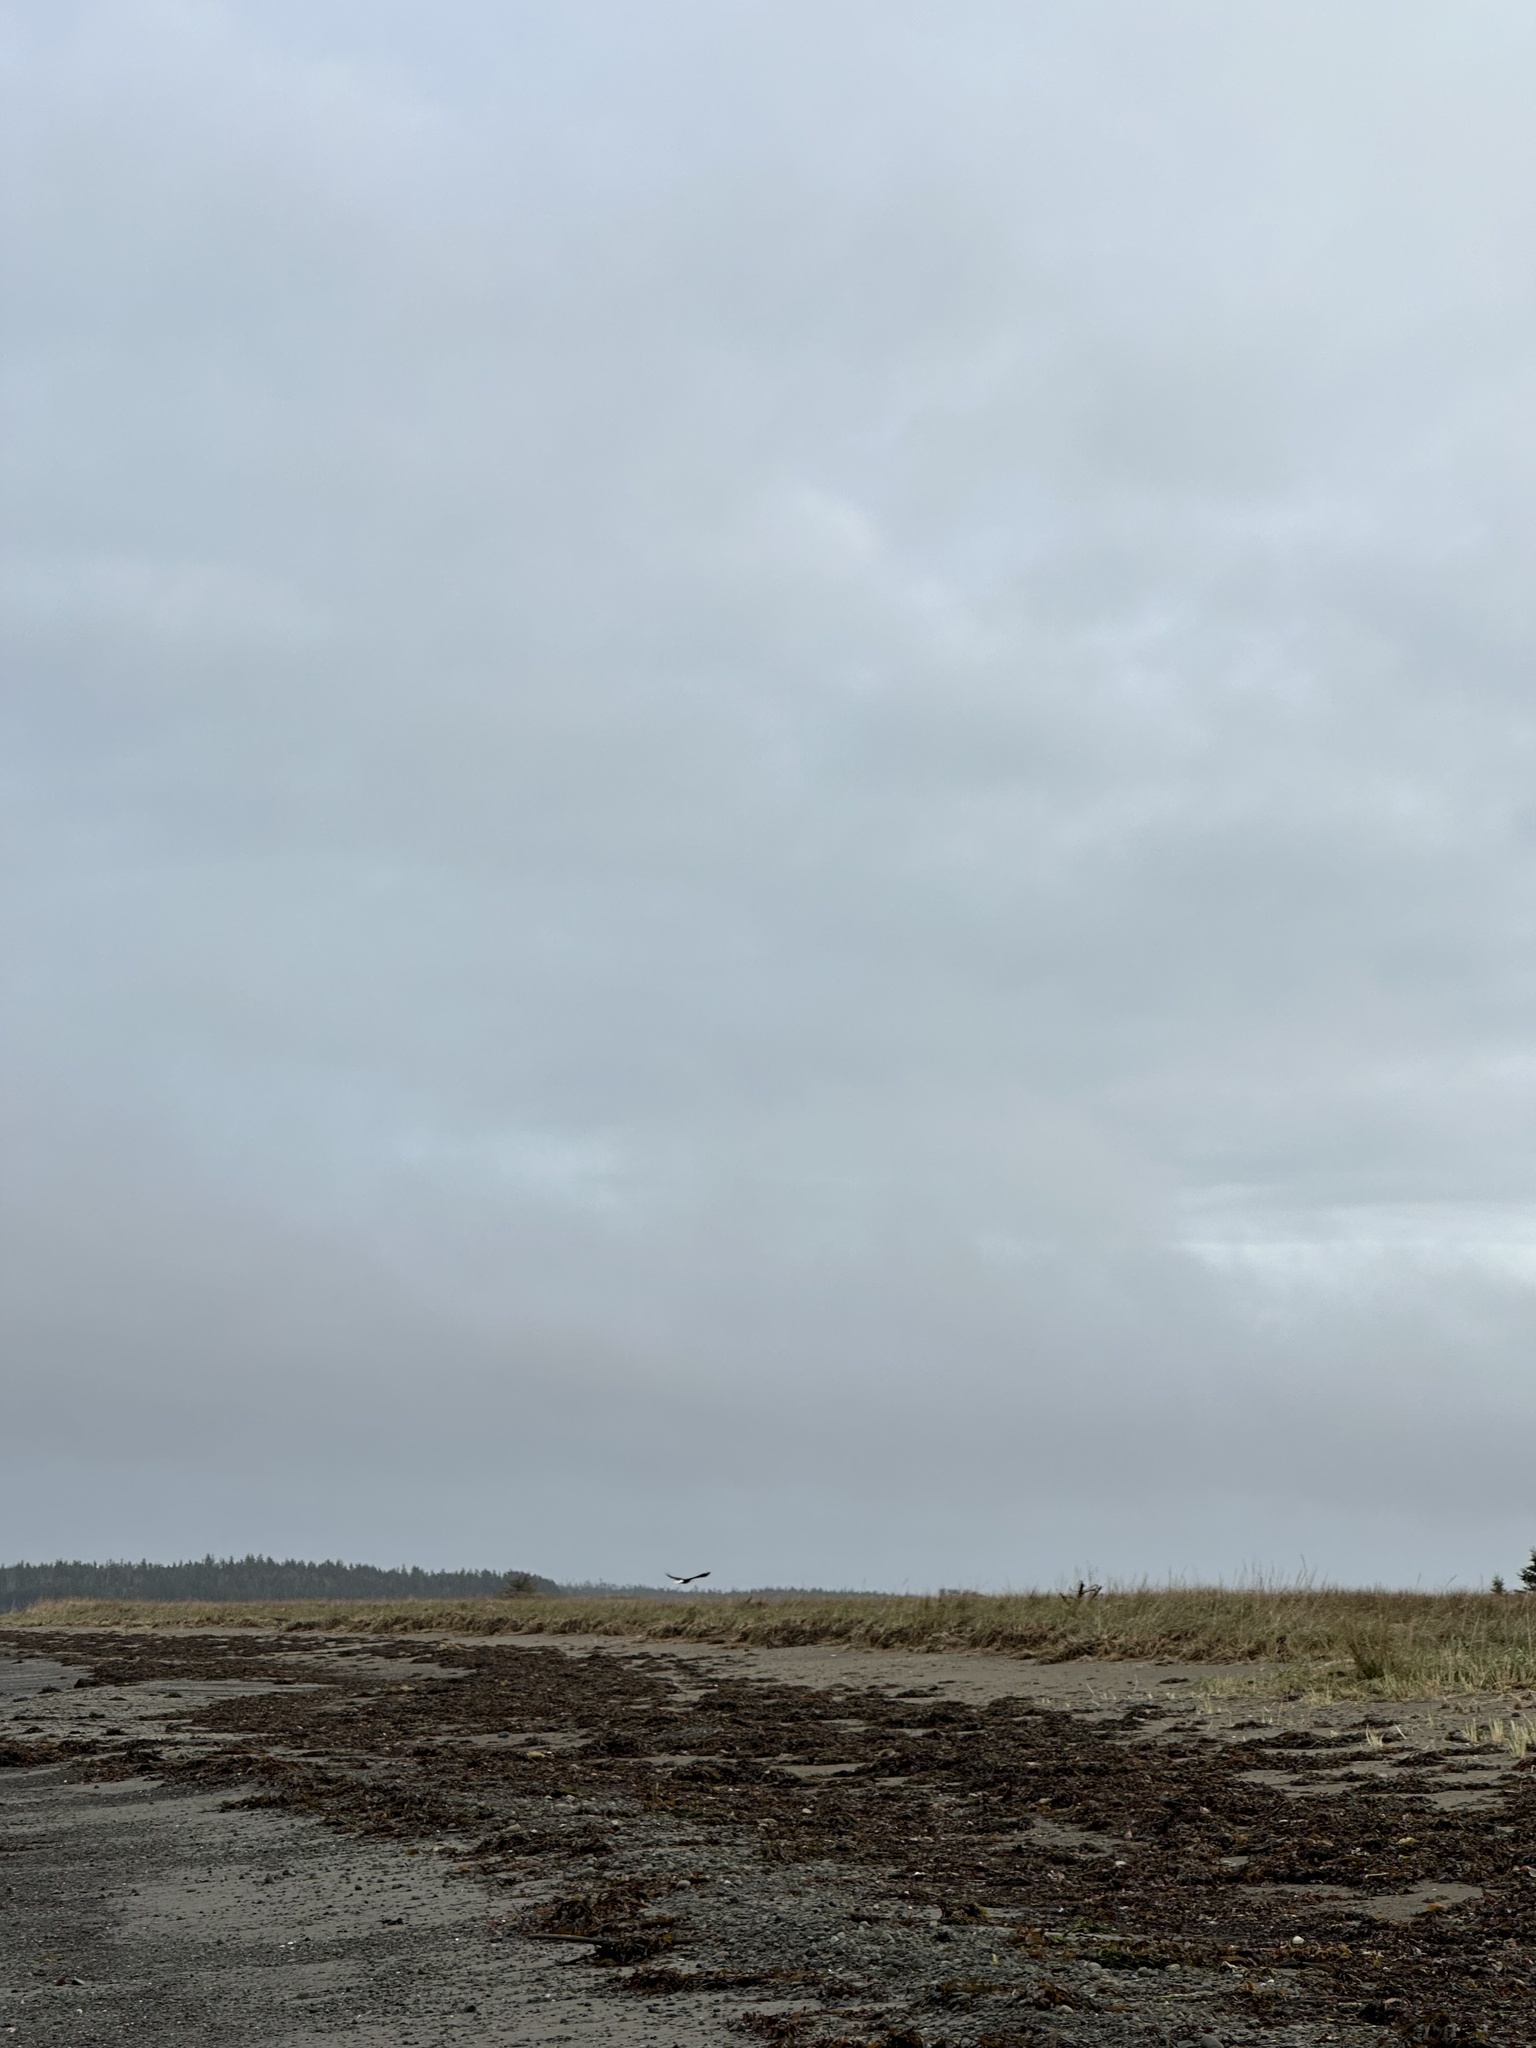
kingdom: Animalia
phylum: Chordata
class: Aves
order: Accipitriformes
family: Accipitridae
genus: Haliaeetus
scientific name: Haliaeetus leucocephalus
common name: Bald eagle
